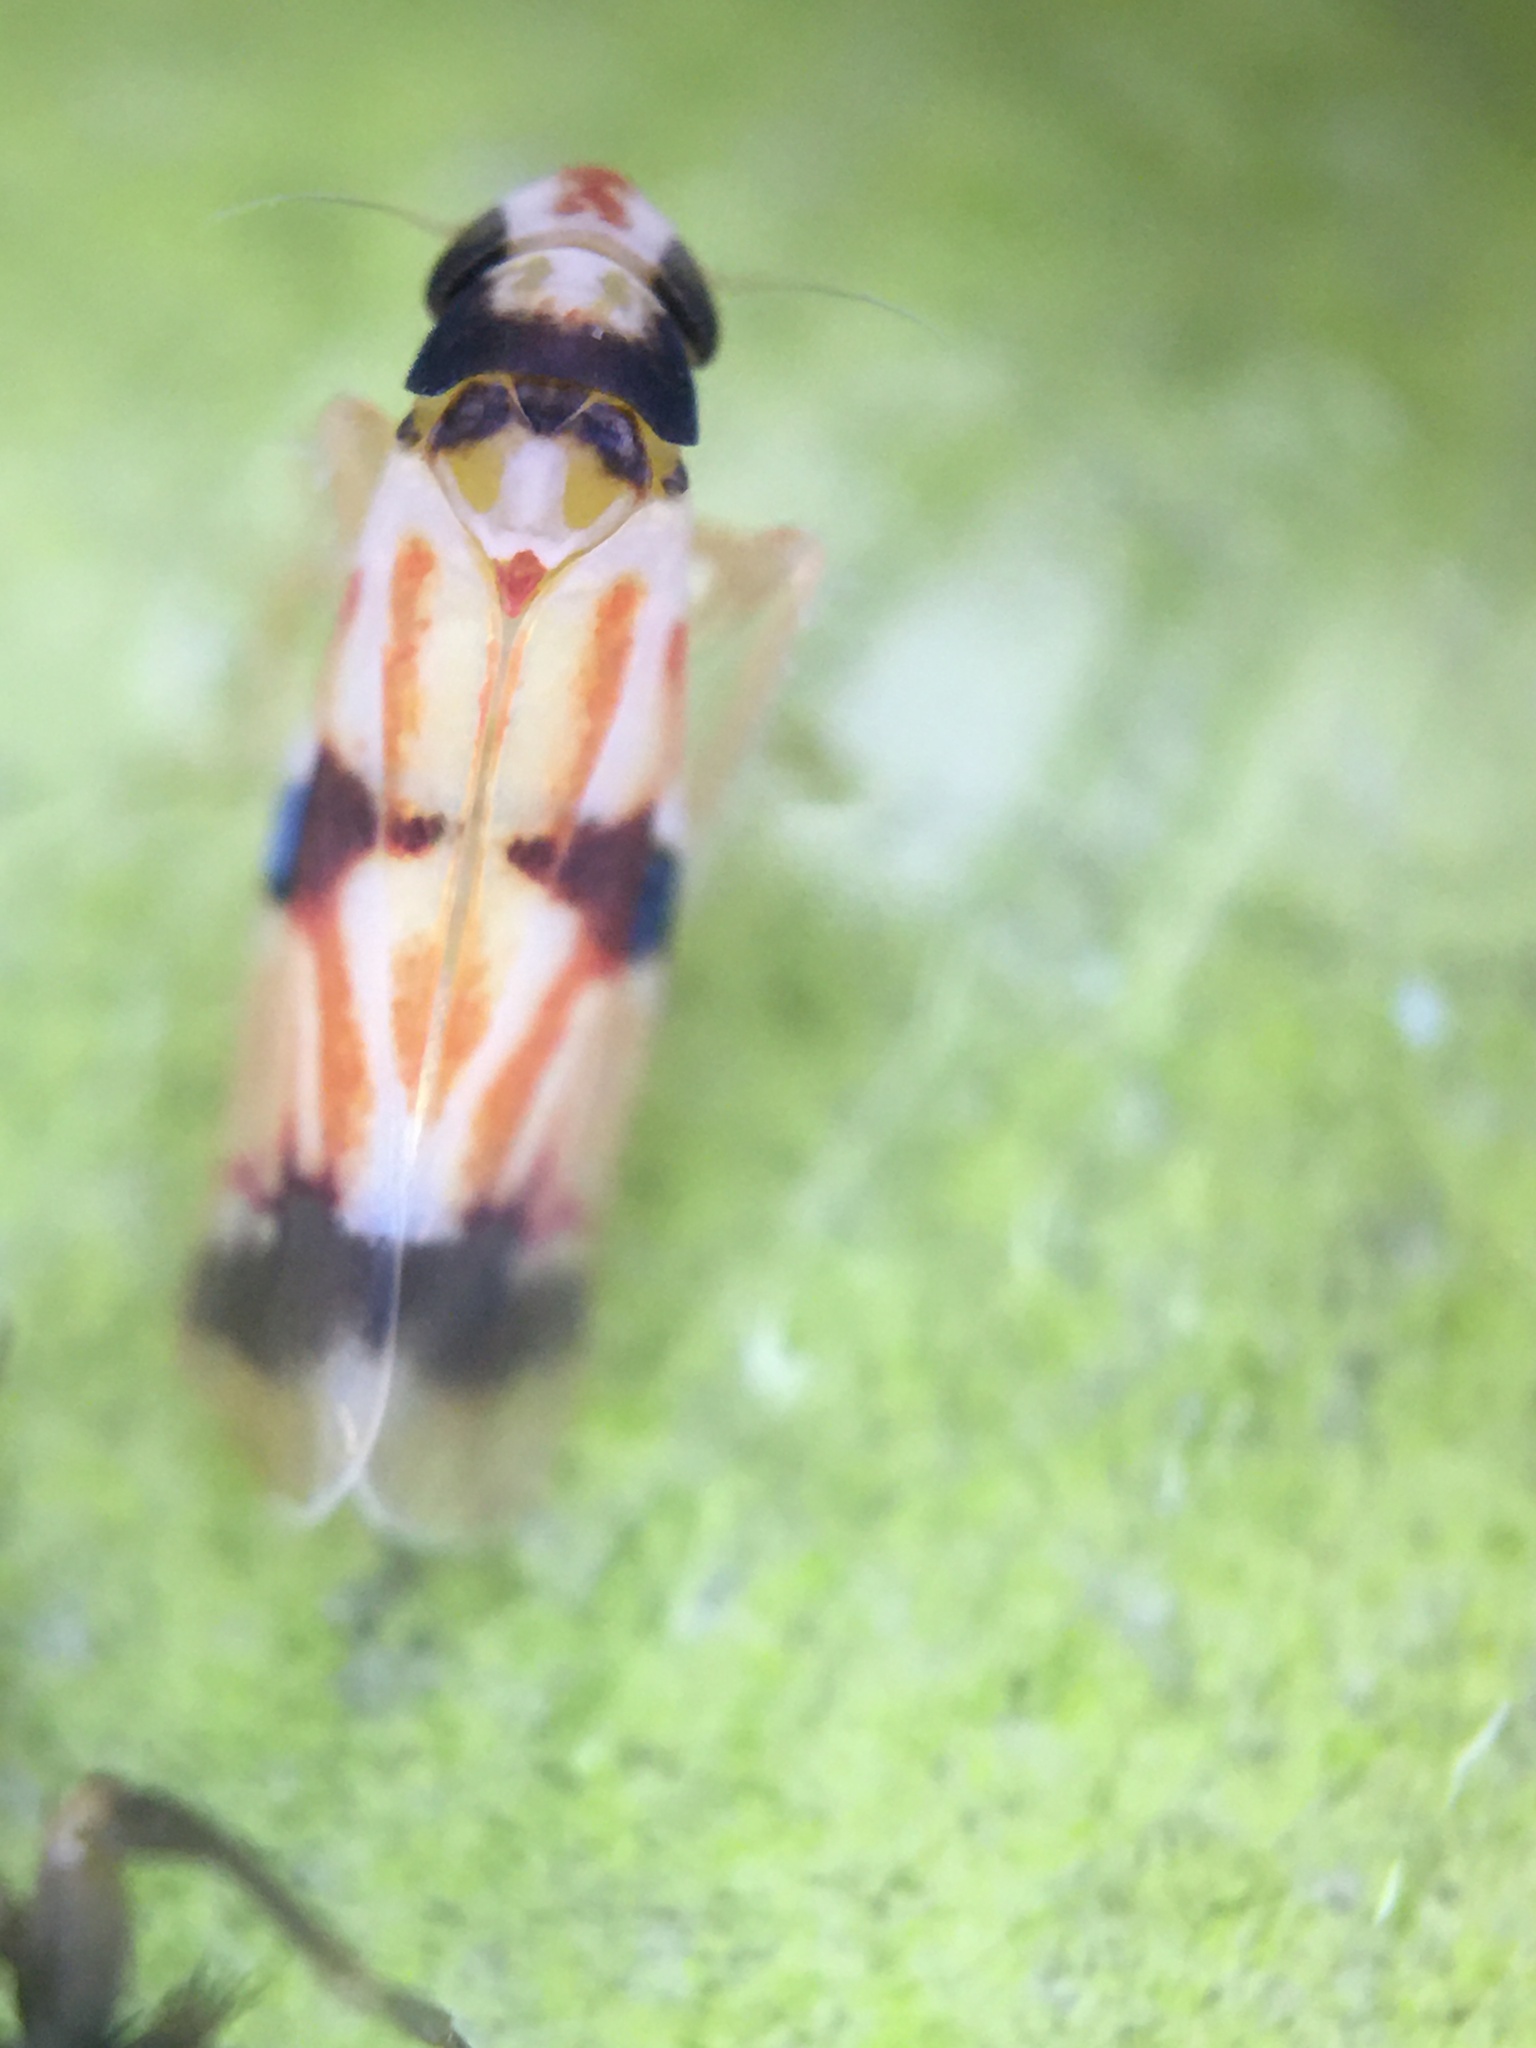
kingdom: Animalia
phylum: Arthropoda
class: Insecta
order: Hemiptera
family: Cicadellidae
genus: Erythroneura
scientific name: Erythroneura calycula
